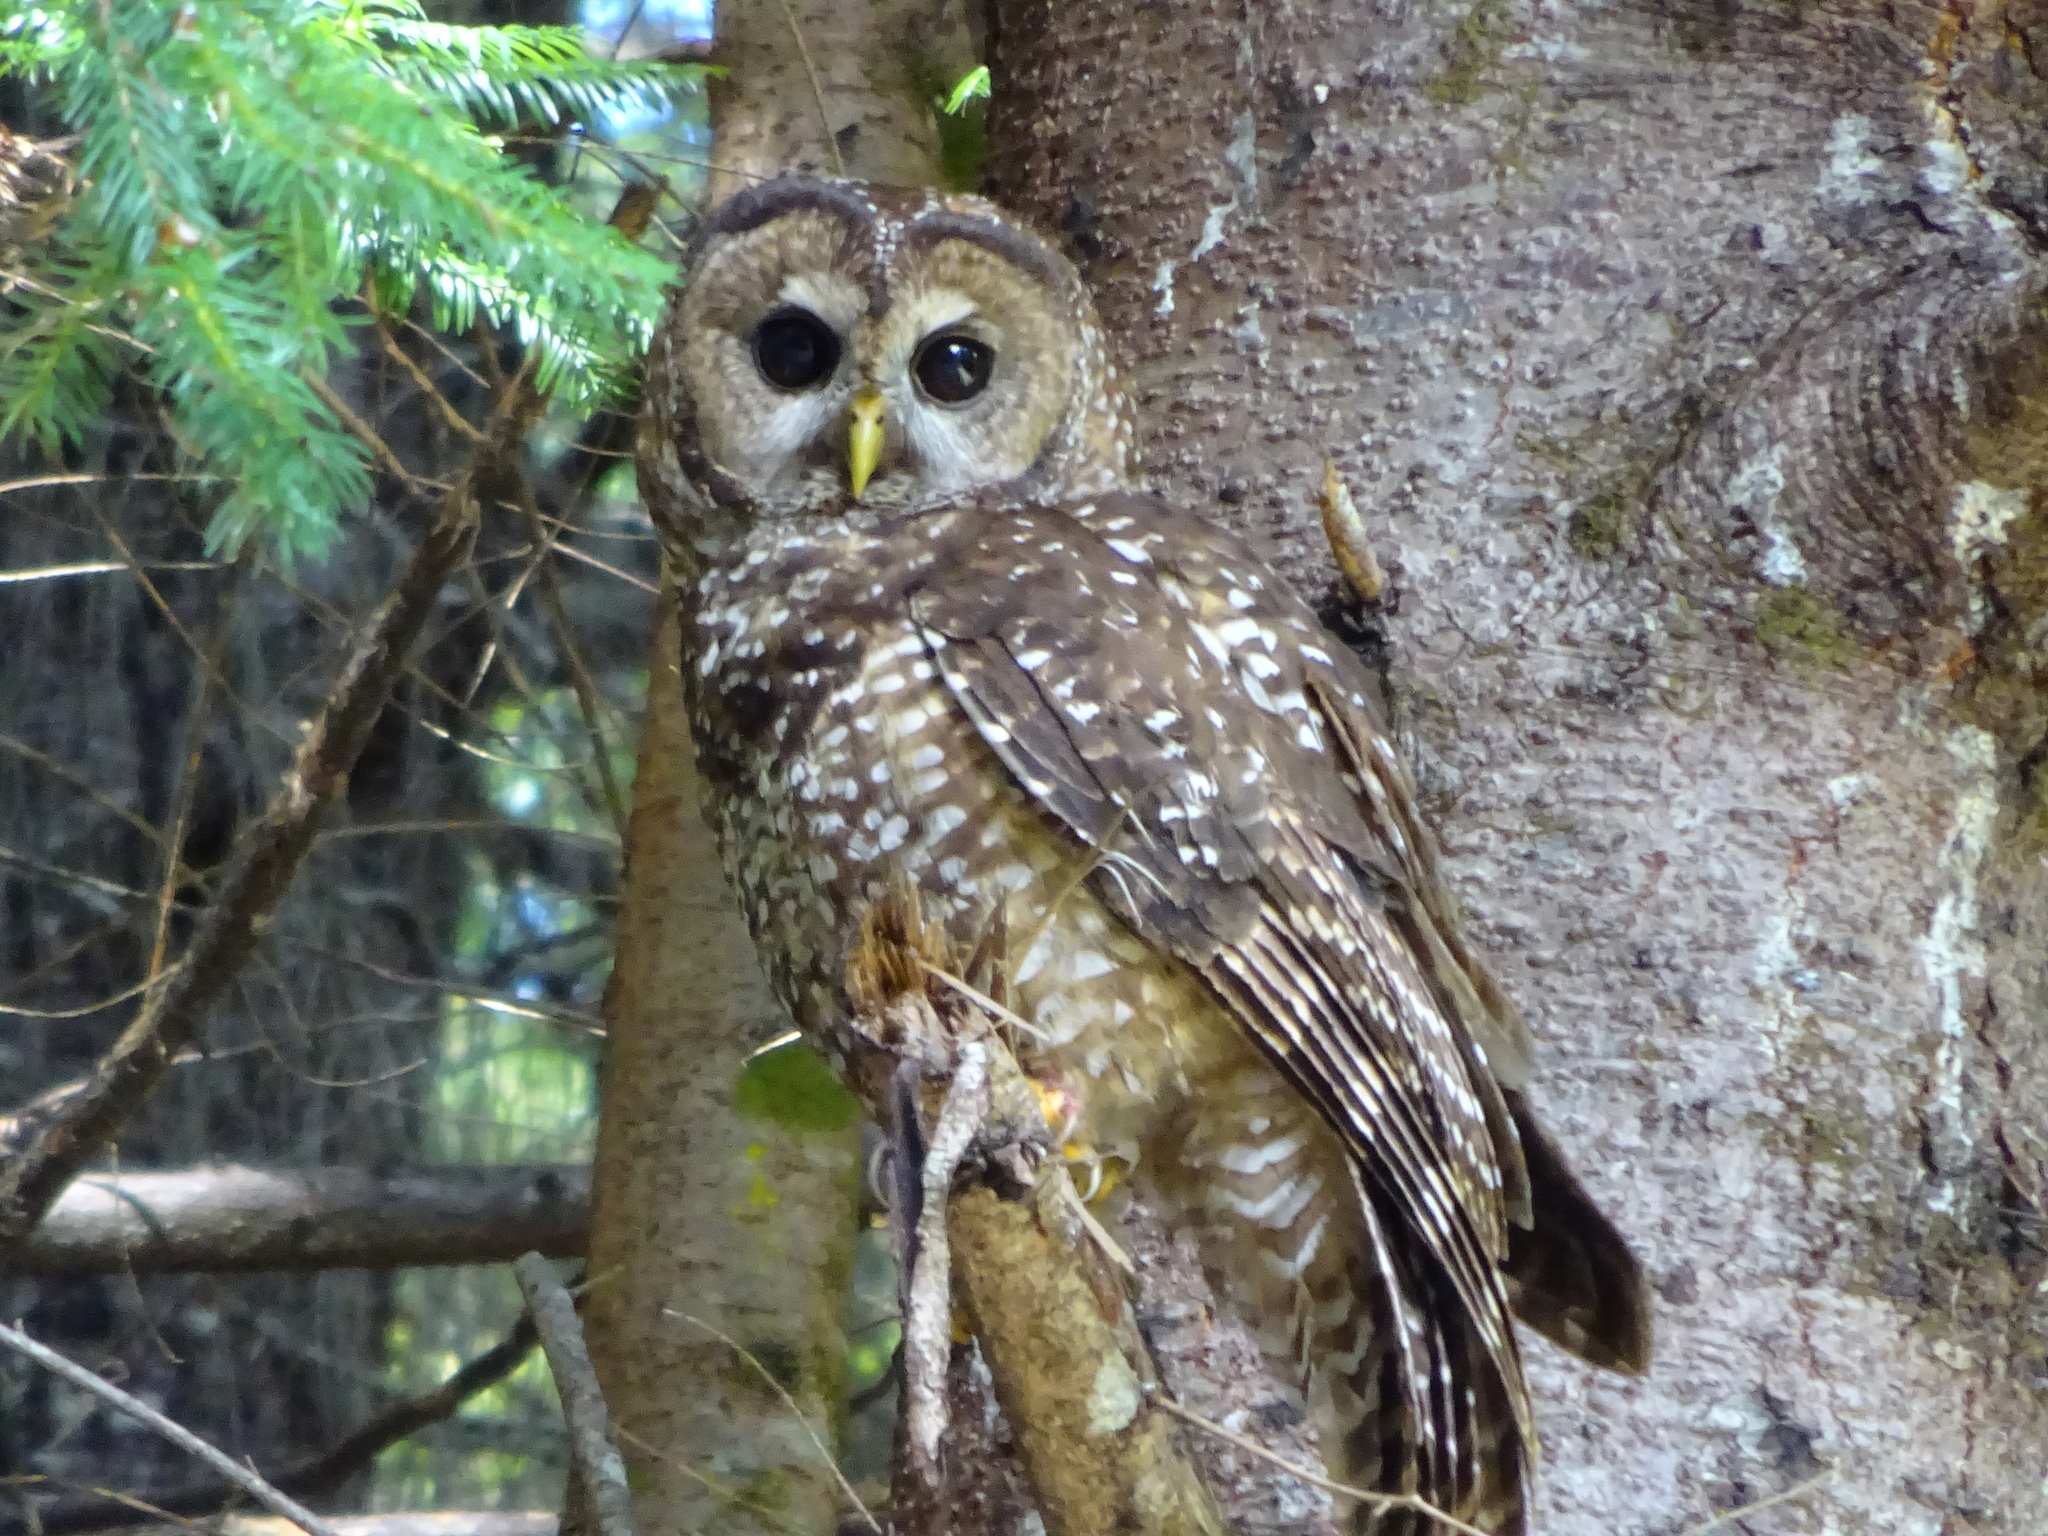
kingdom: Animalia
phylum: Chordata
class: Aves
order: Strigiformes
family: Strigidae
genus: Strix
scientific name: Strix occidentalis
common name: Spotted owl
